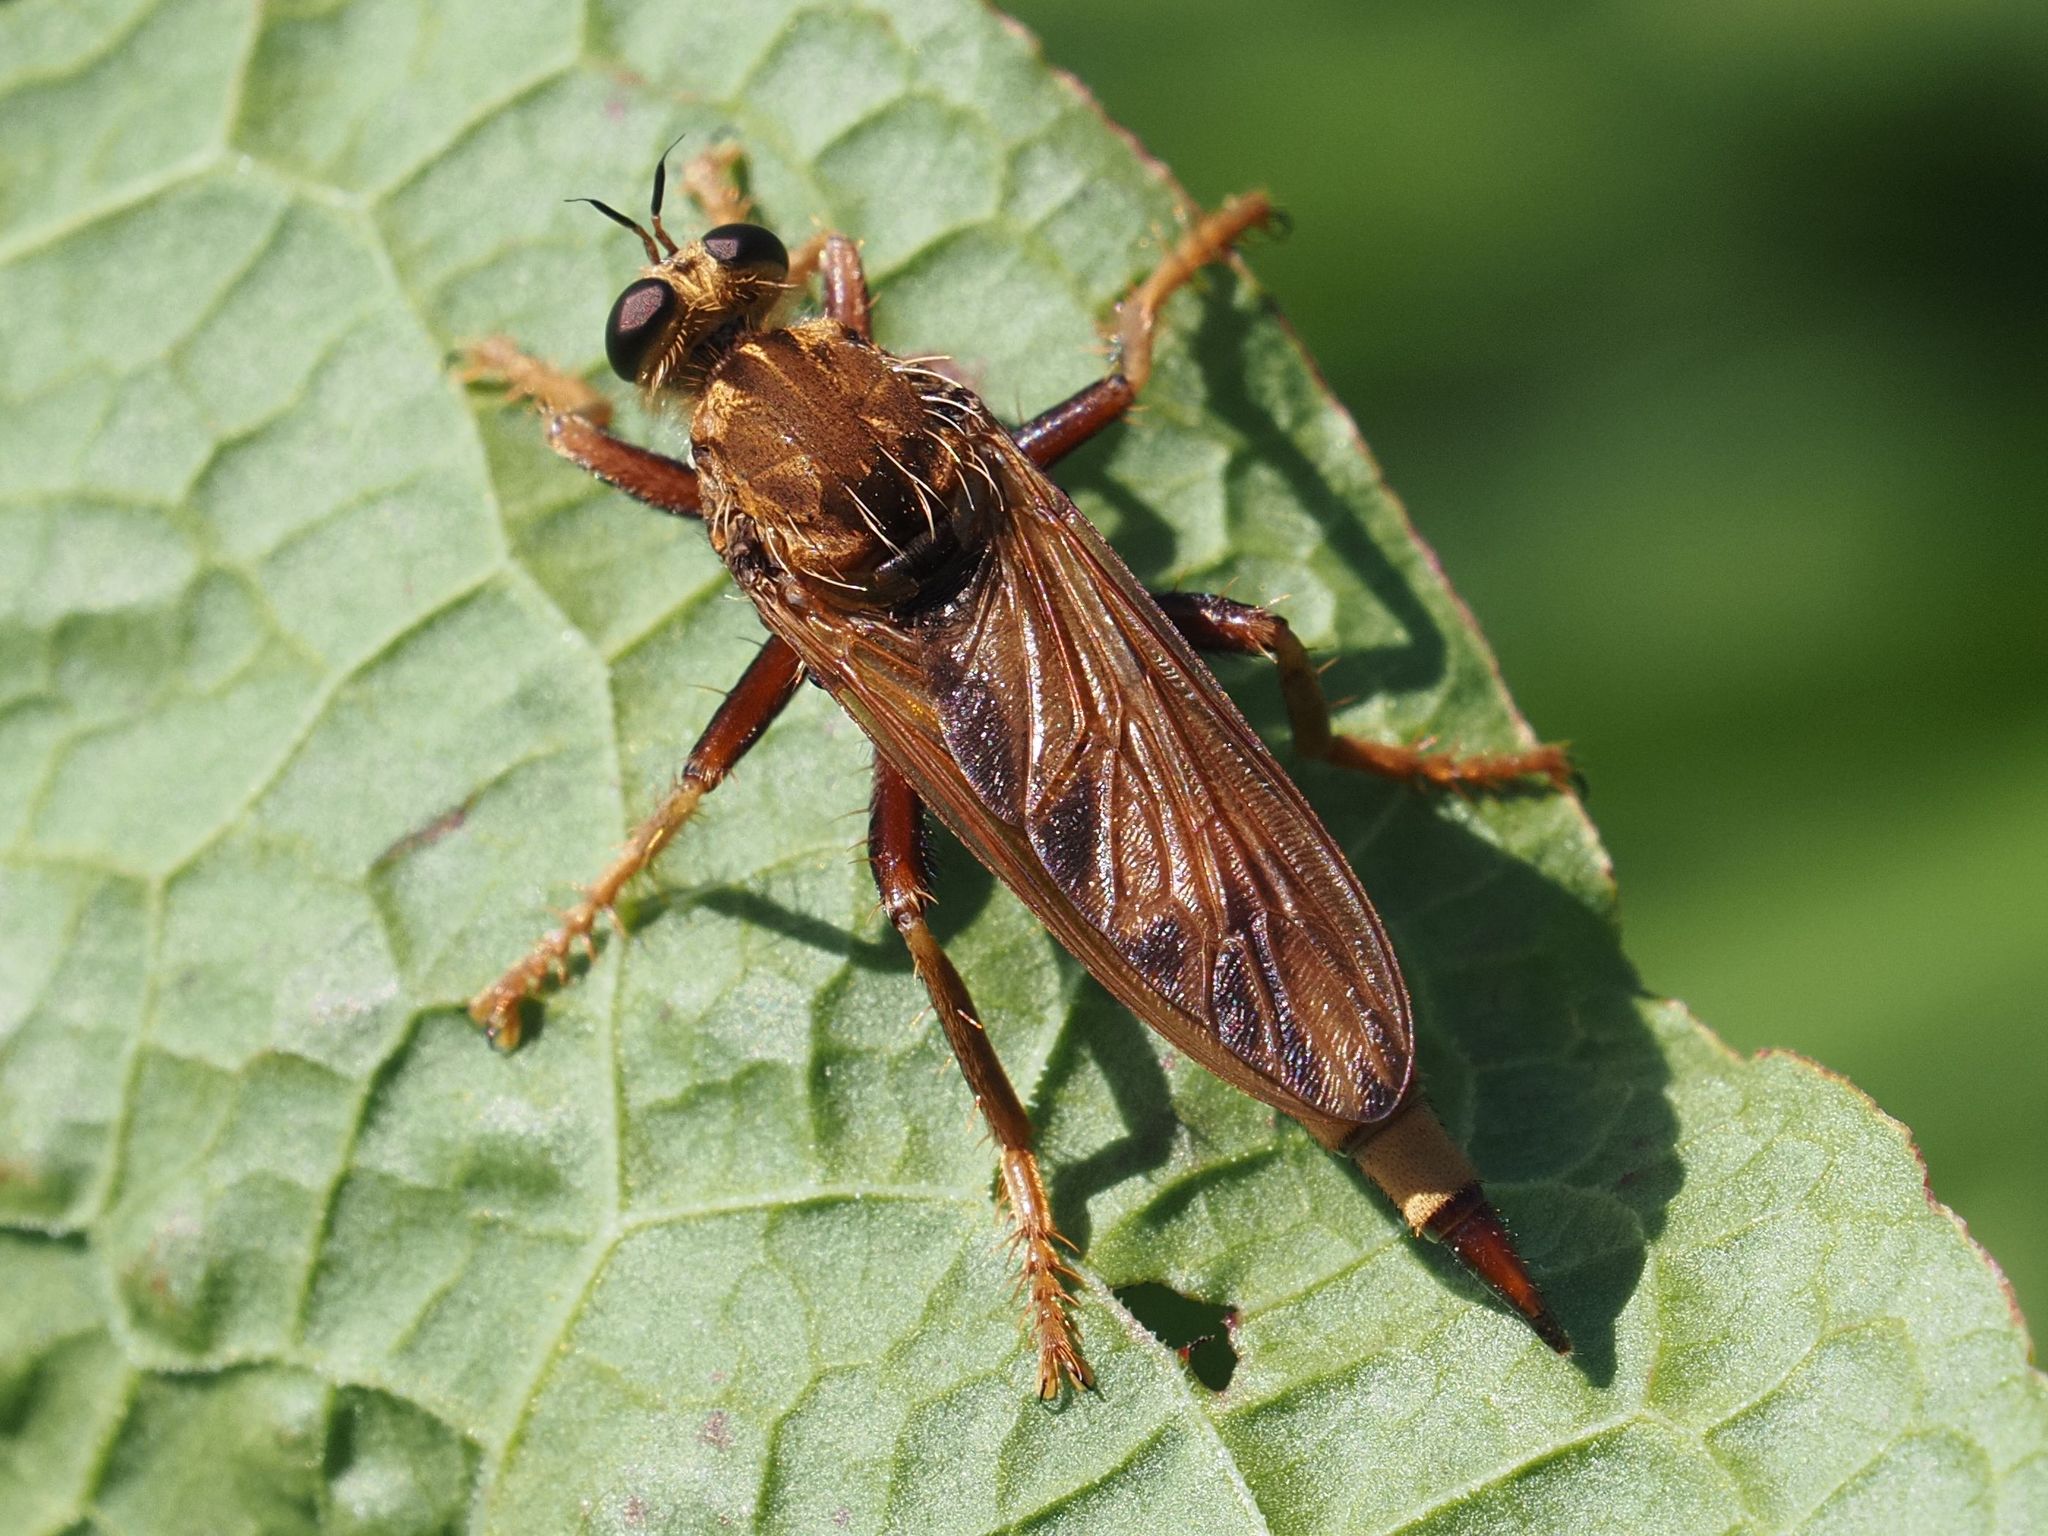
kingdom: Animalia
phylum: Arthropoda
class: Insecta
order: Diptera
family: Asilidae
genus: Asilus
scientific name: Asilus crabroniformis
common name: Hornet robberfly
